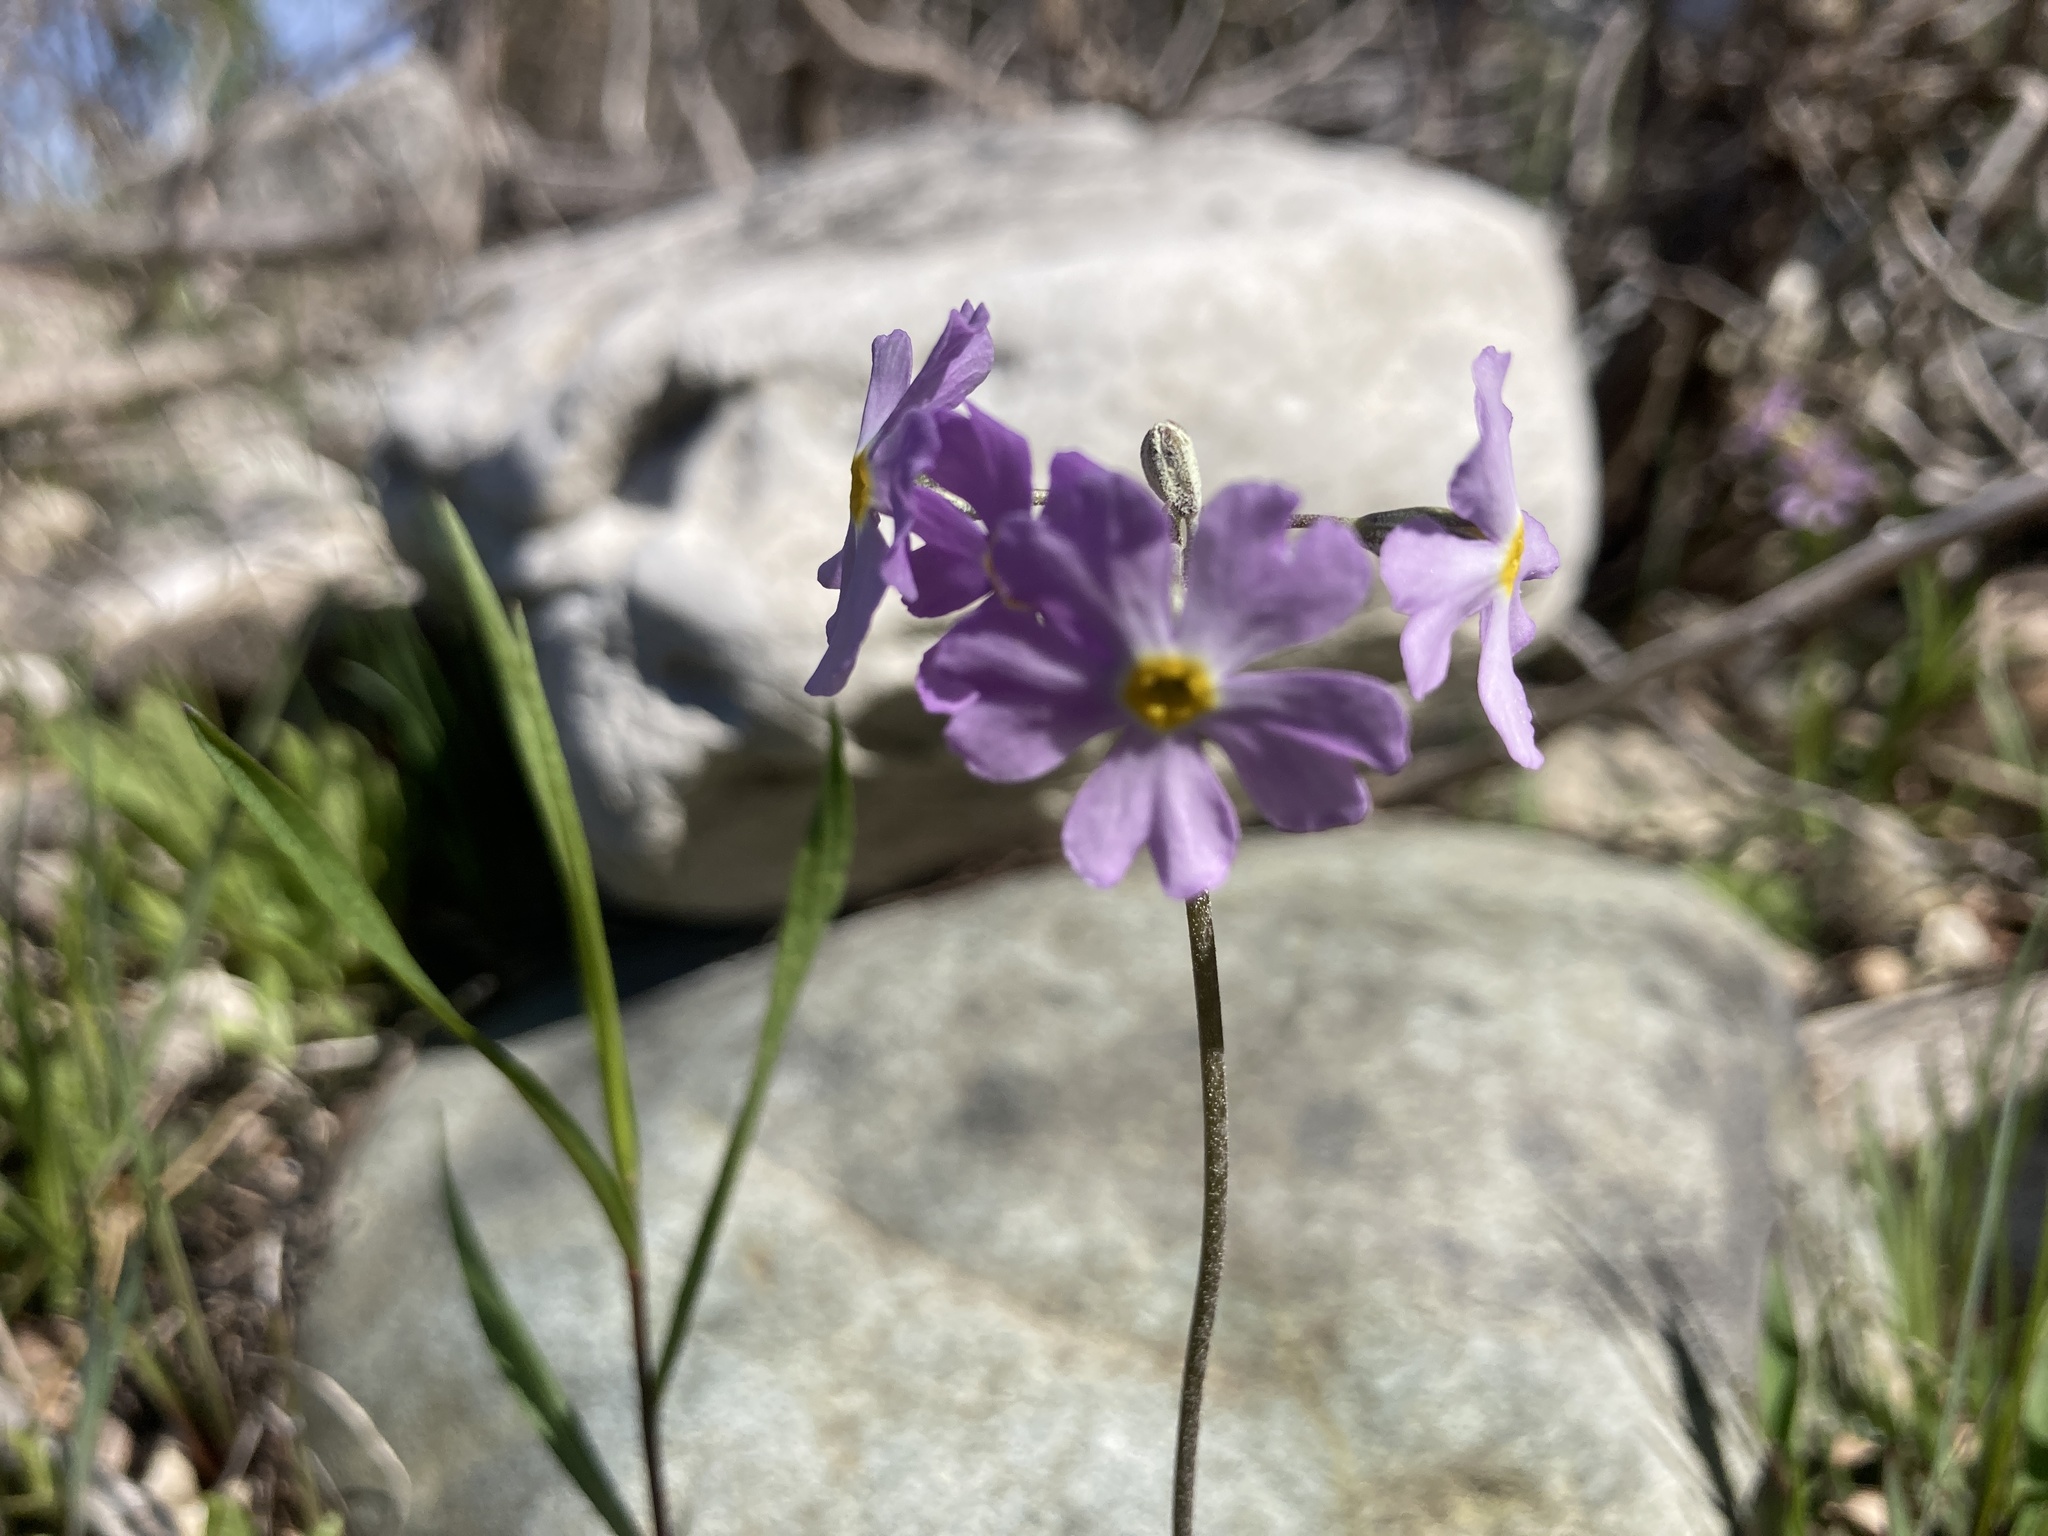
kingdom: Plantae
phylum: Tracheophyta
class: Magnoliopsida
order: Ericales
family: Primulaceae
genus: Primula
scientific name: Primula mistassinica
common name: Bird's-eye primrose
